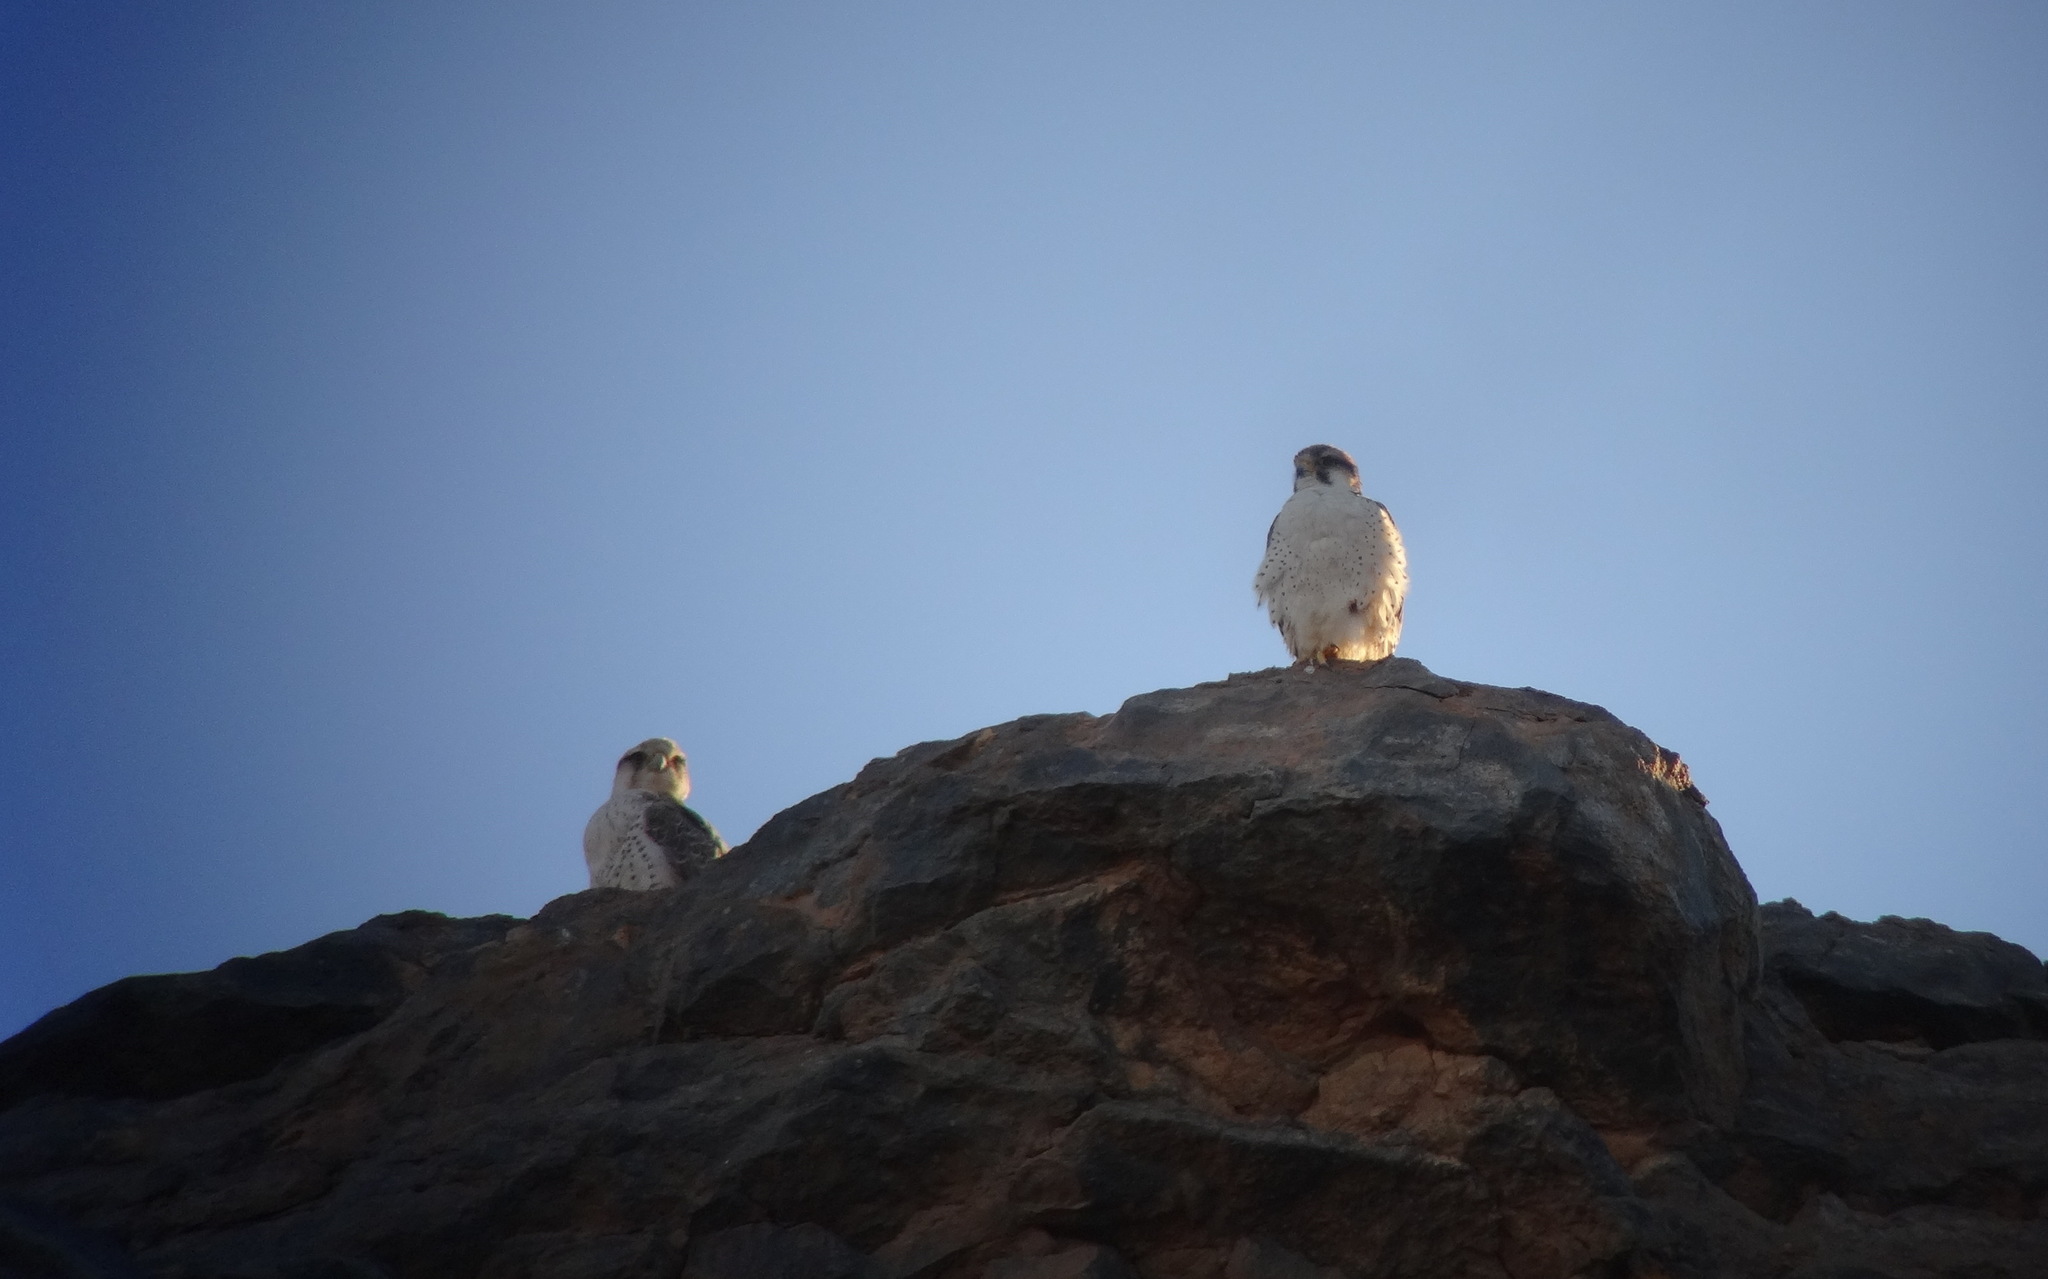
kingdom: Animalia
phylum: Chordata
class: Aves
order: Falconiformes
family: Falconidae
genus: Falco
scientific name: Falco biarmicus
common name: Lanner falcon
